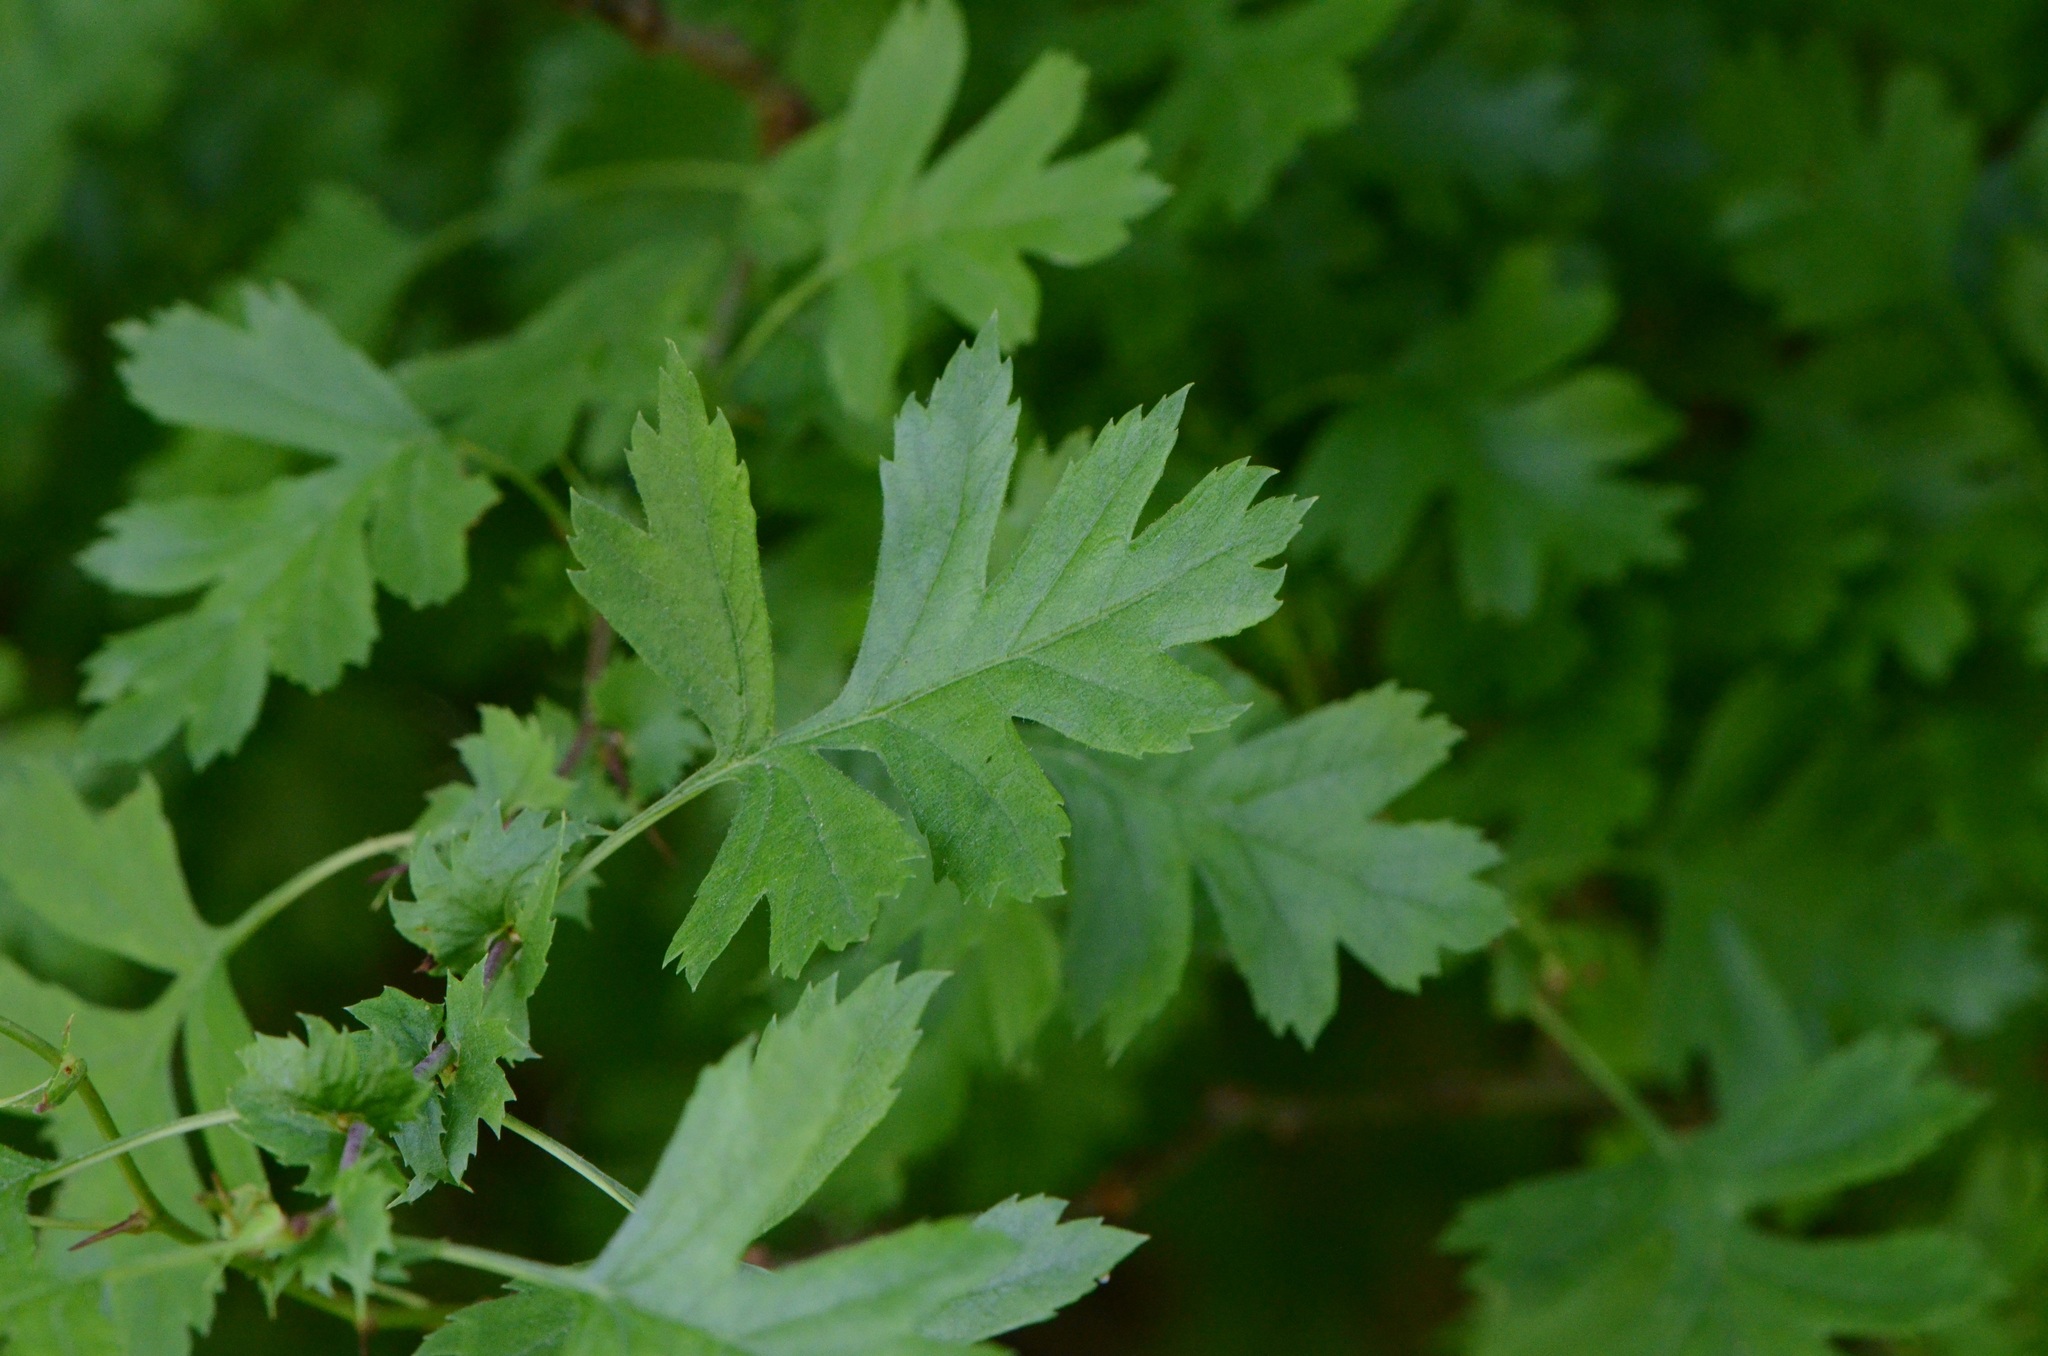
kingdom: Plantae
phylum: Tracheophyta
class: Magnoliopsida
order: Rosales
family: Rosaceae
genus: Crataegus
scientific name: Crataegus monogyna
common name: Hawthorn
